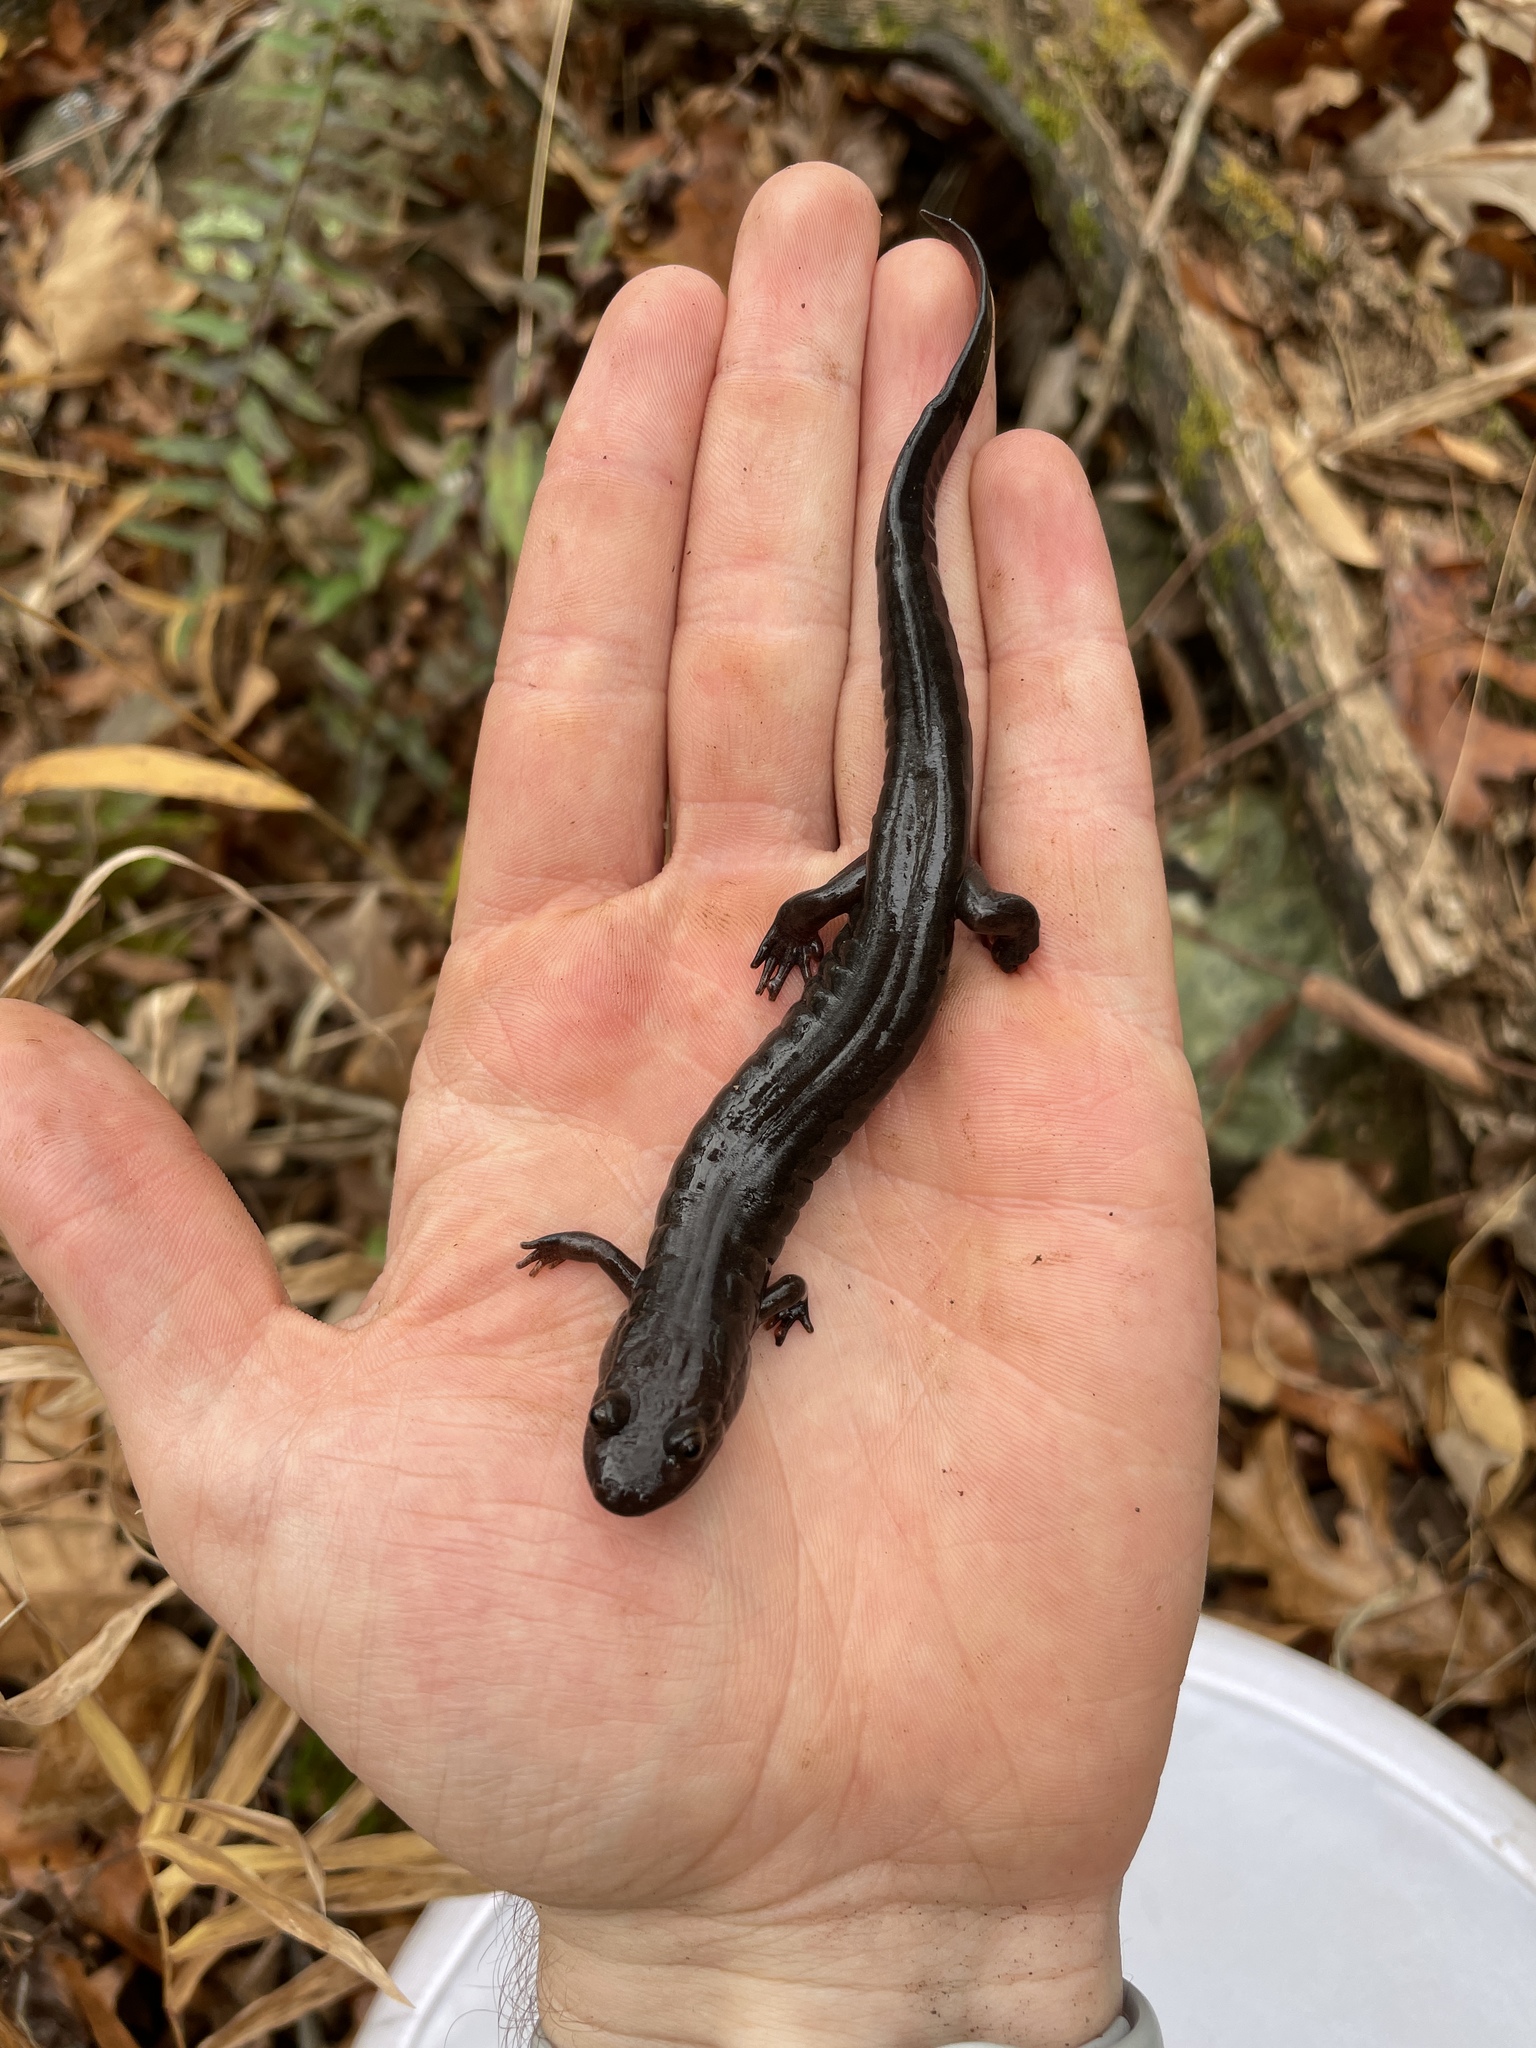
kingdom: Animalia
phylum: Chordata
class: Amphibia
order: Caudata
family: Plethodontidae
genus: Desmognathus
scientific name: Desmognathus brimleyorum
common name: Ouachita dusky salamander
